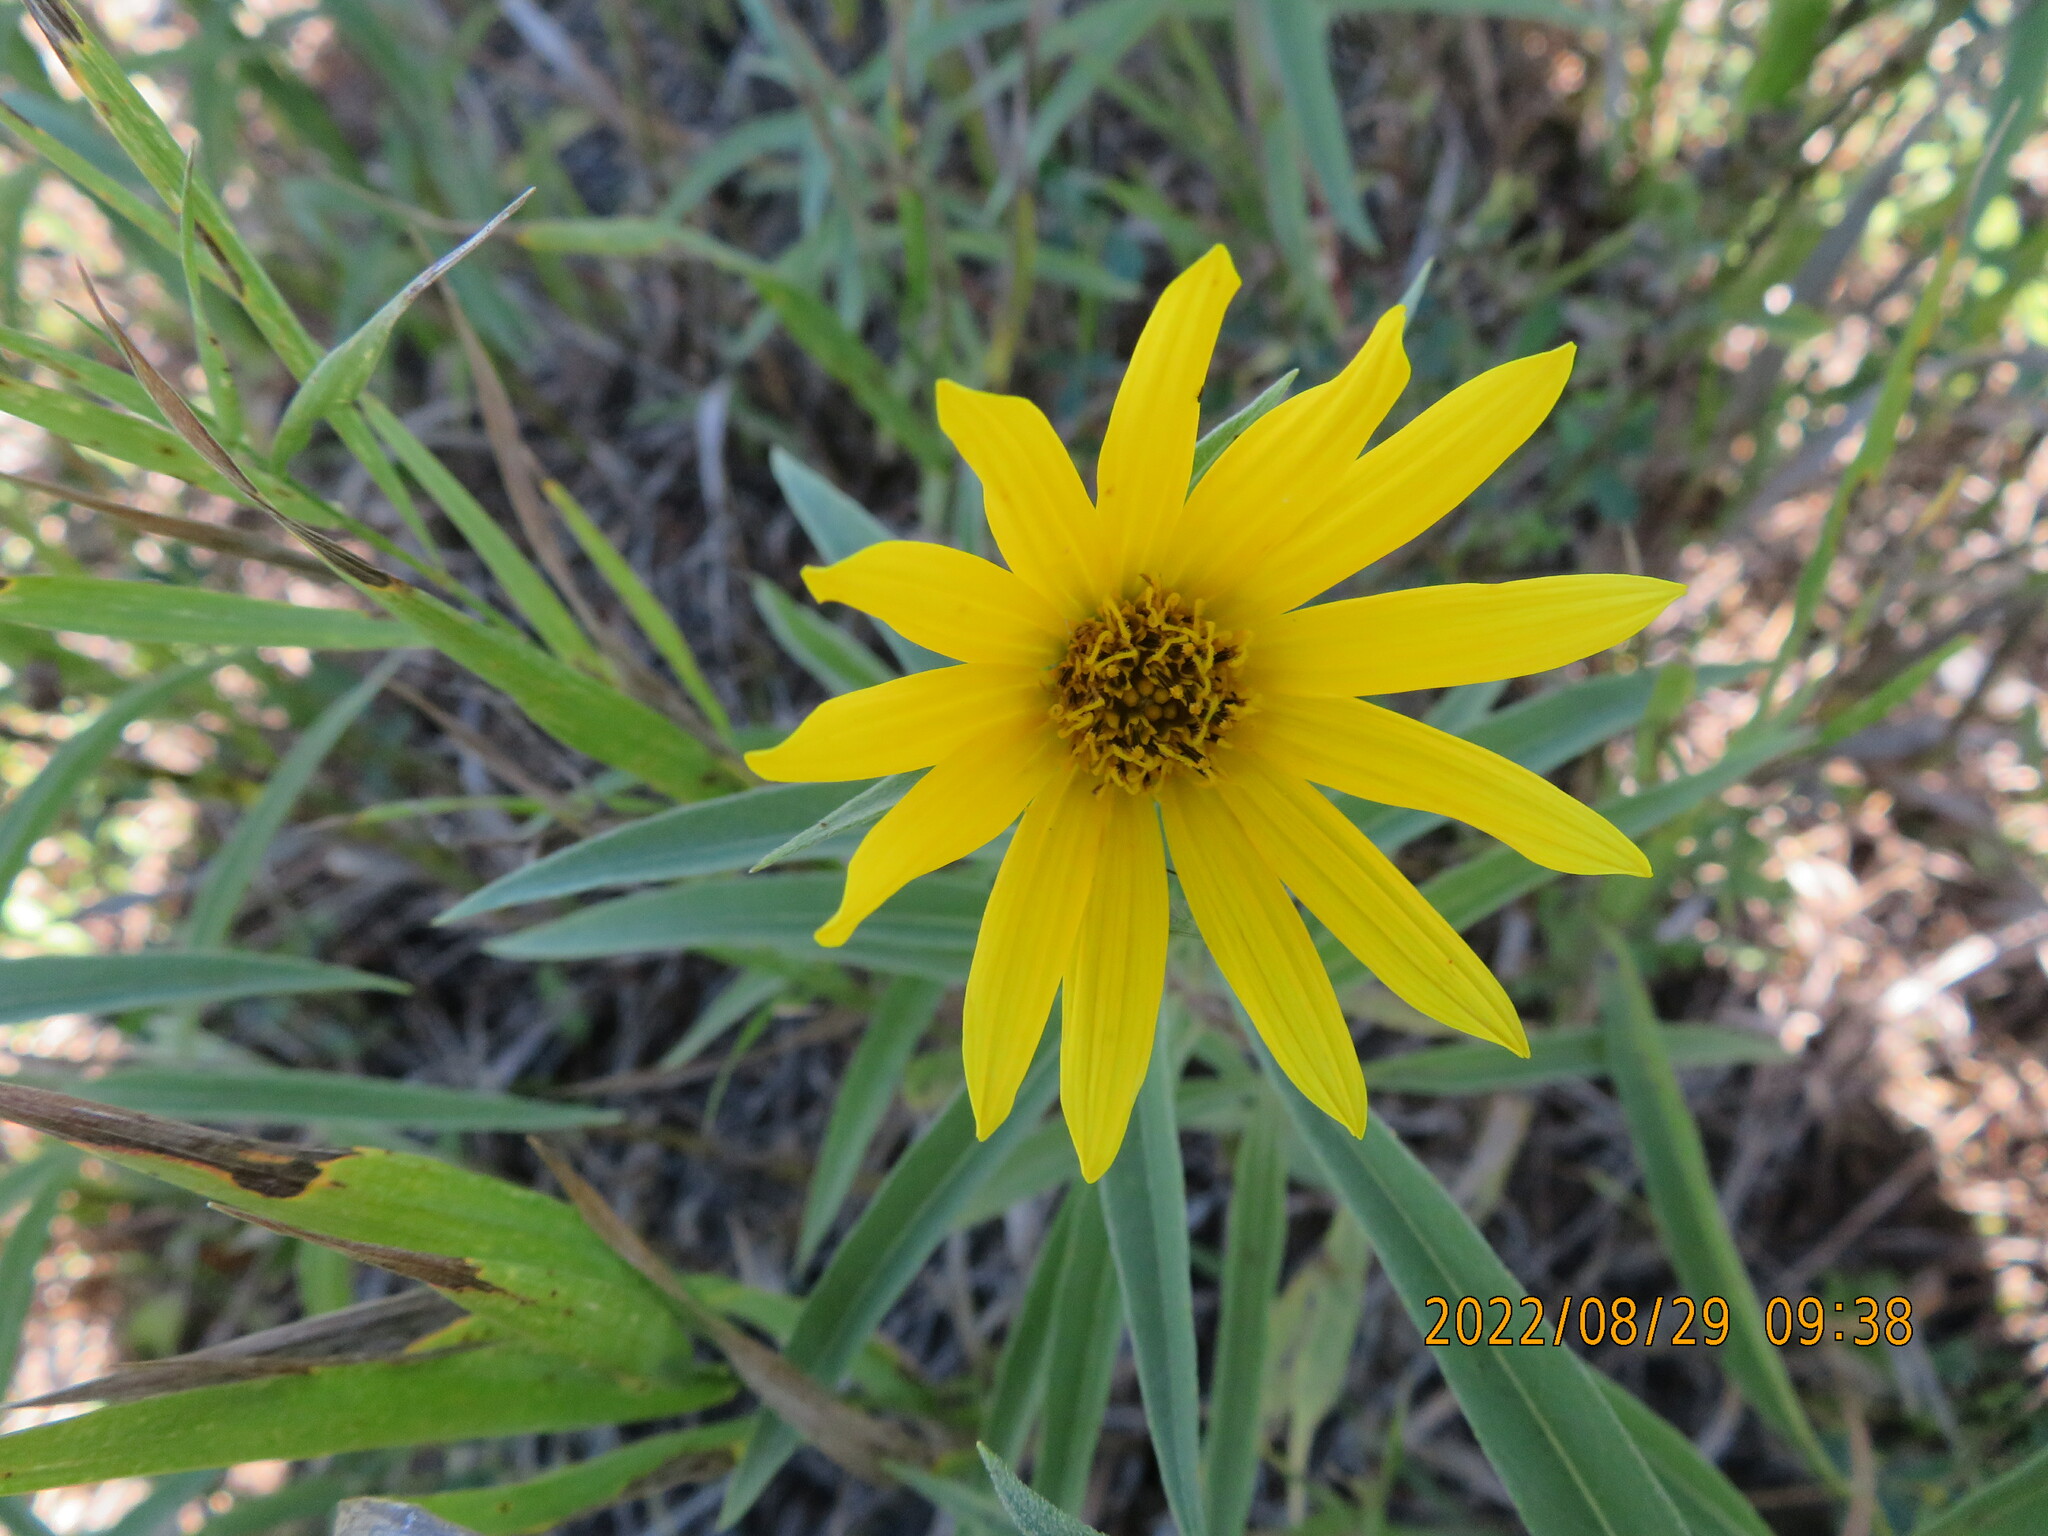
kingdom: Plantae
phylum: Tracheophyta
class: Magnoliopsida
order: Asterales
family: Asteraceae
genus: Helianthus
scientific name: Helianthus maximiliani
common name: Maximilian's sunflower
